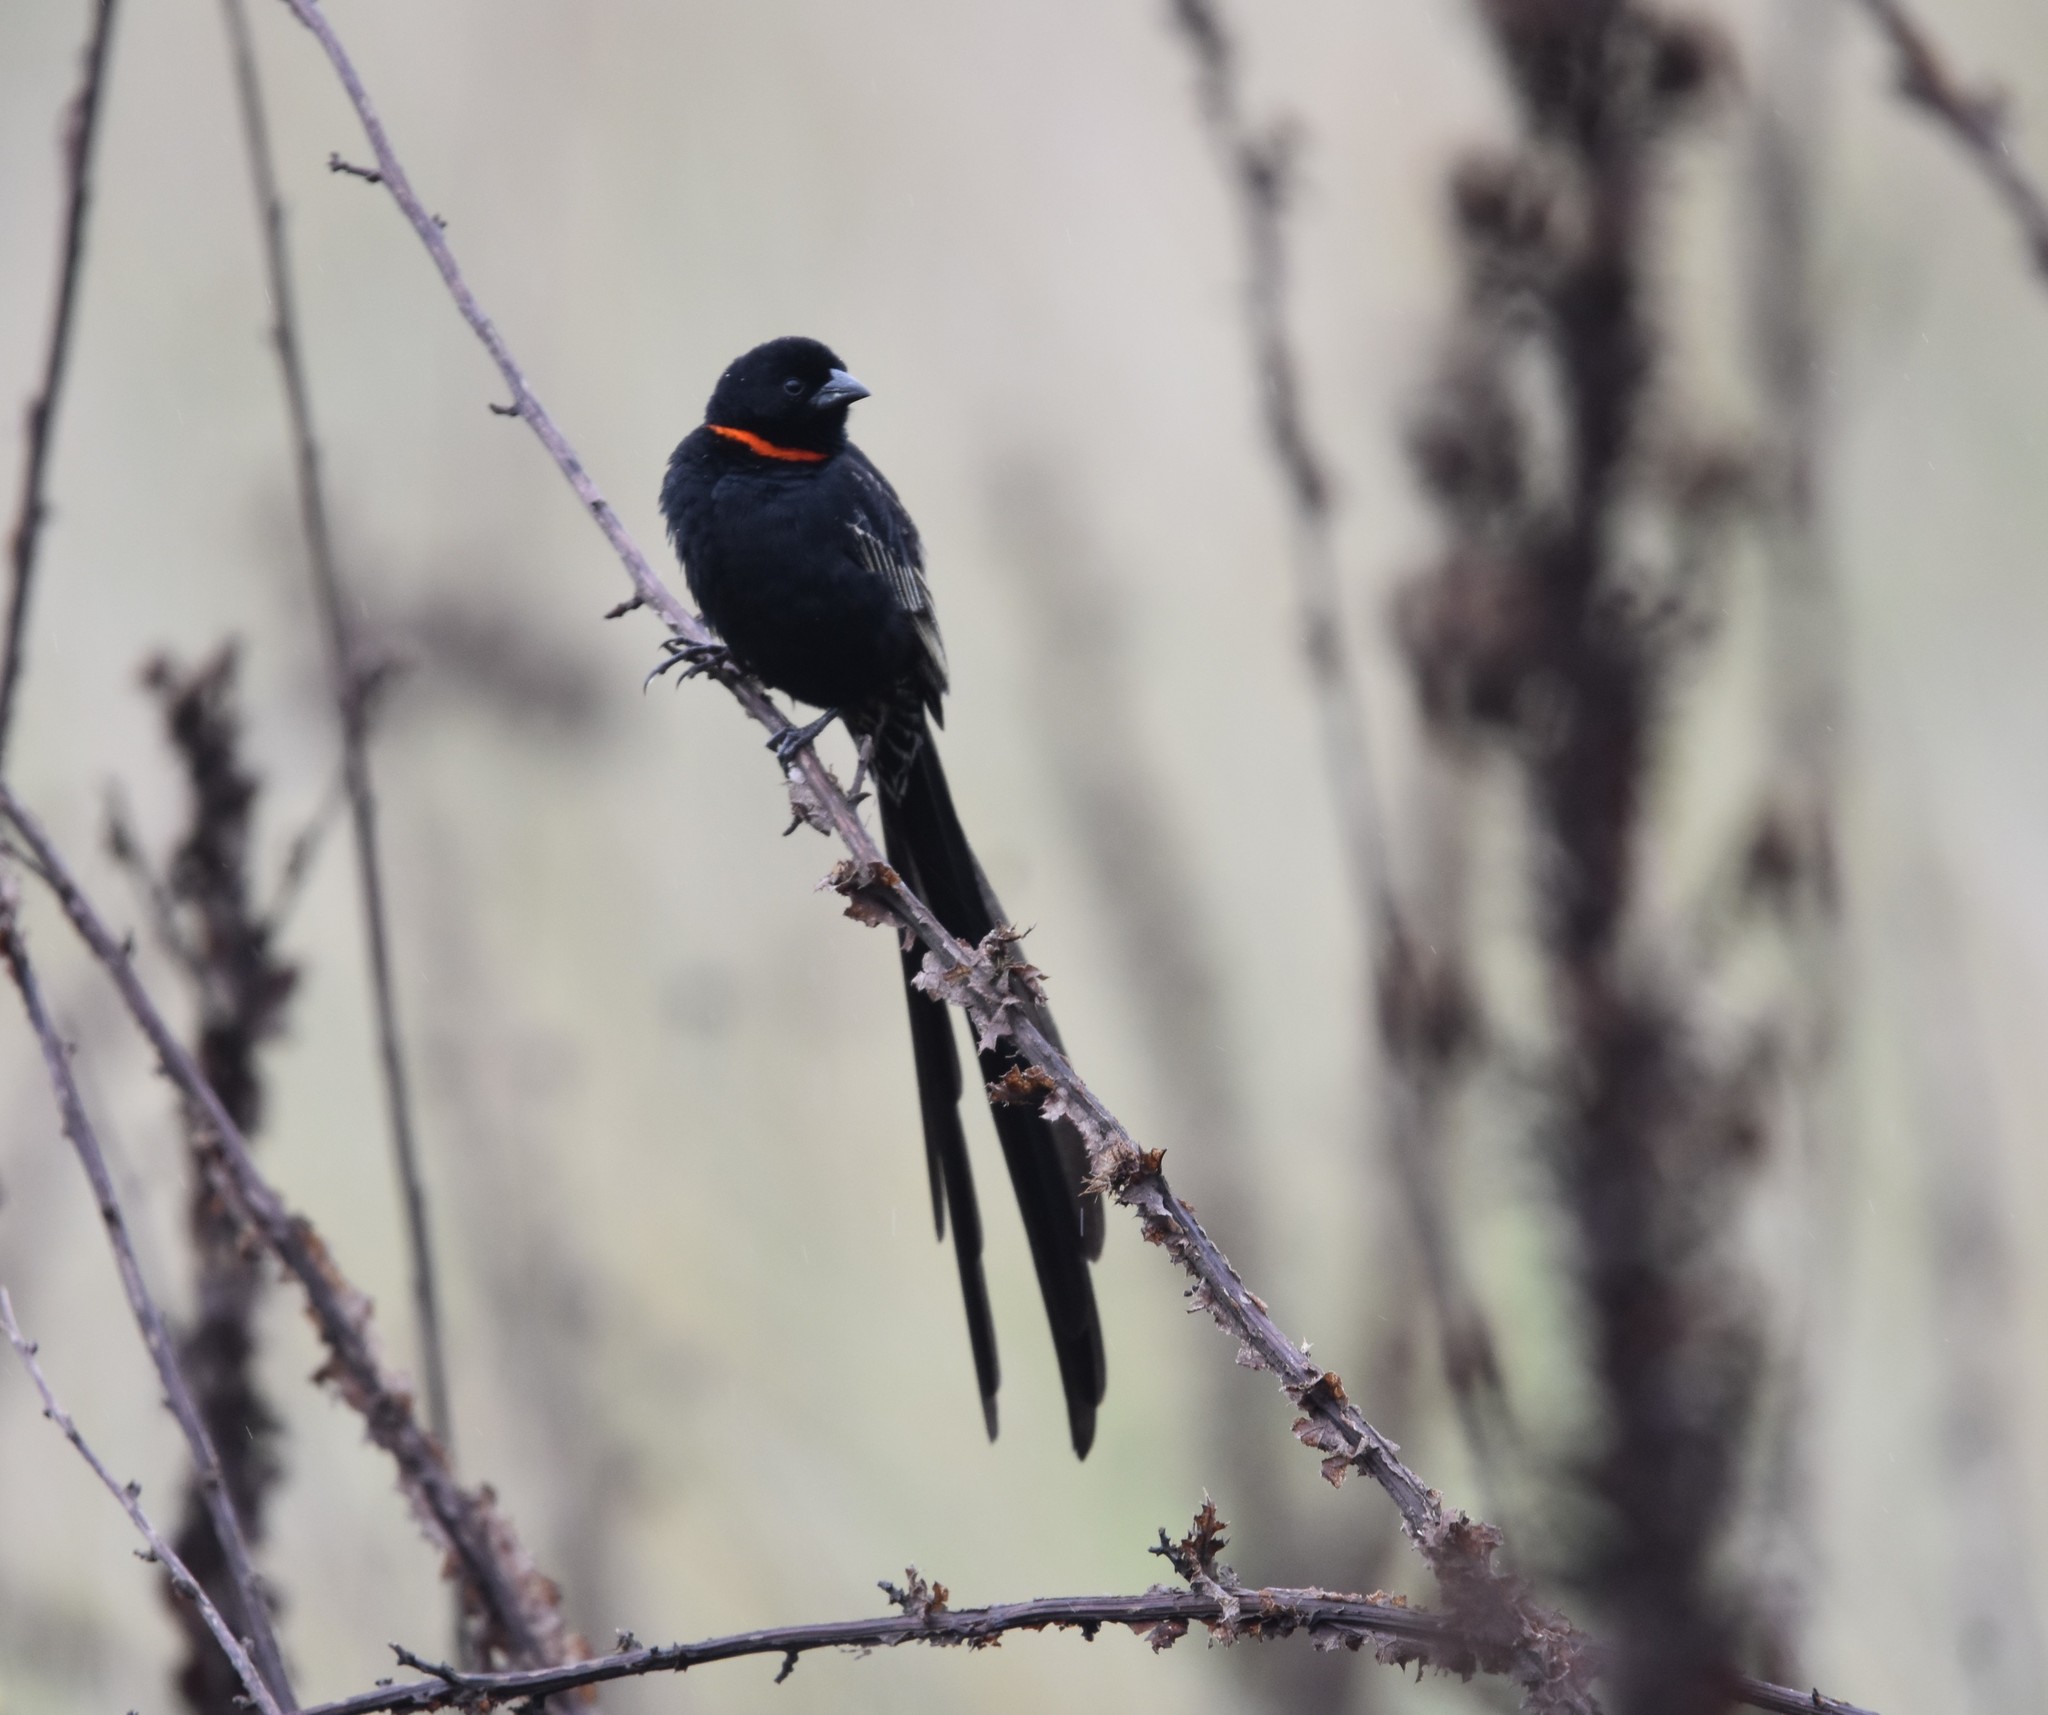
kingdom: Animalia
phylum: Chordata
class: Aves
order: Passeriformes
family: Ploceidae
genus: Euplectes
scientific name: Euplectes ardens
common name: Red-collared widowbird
